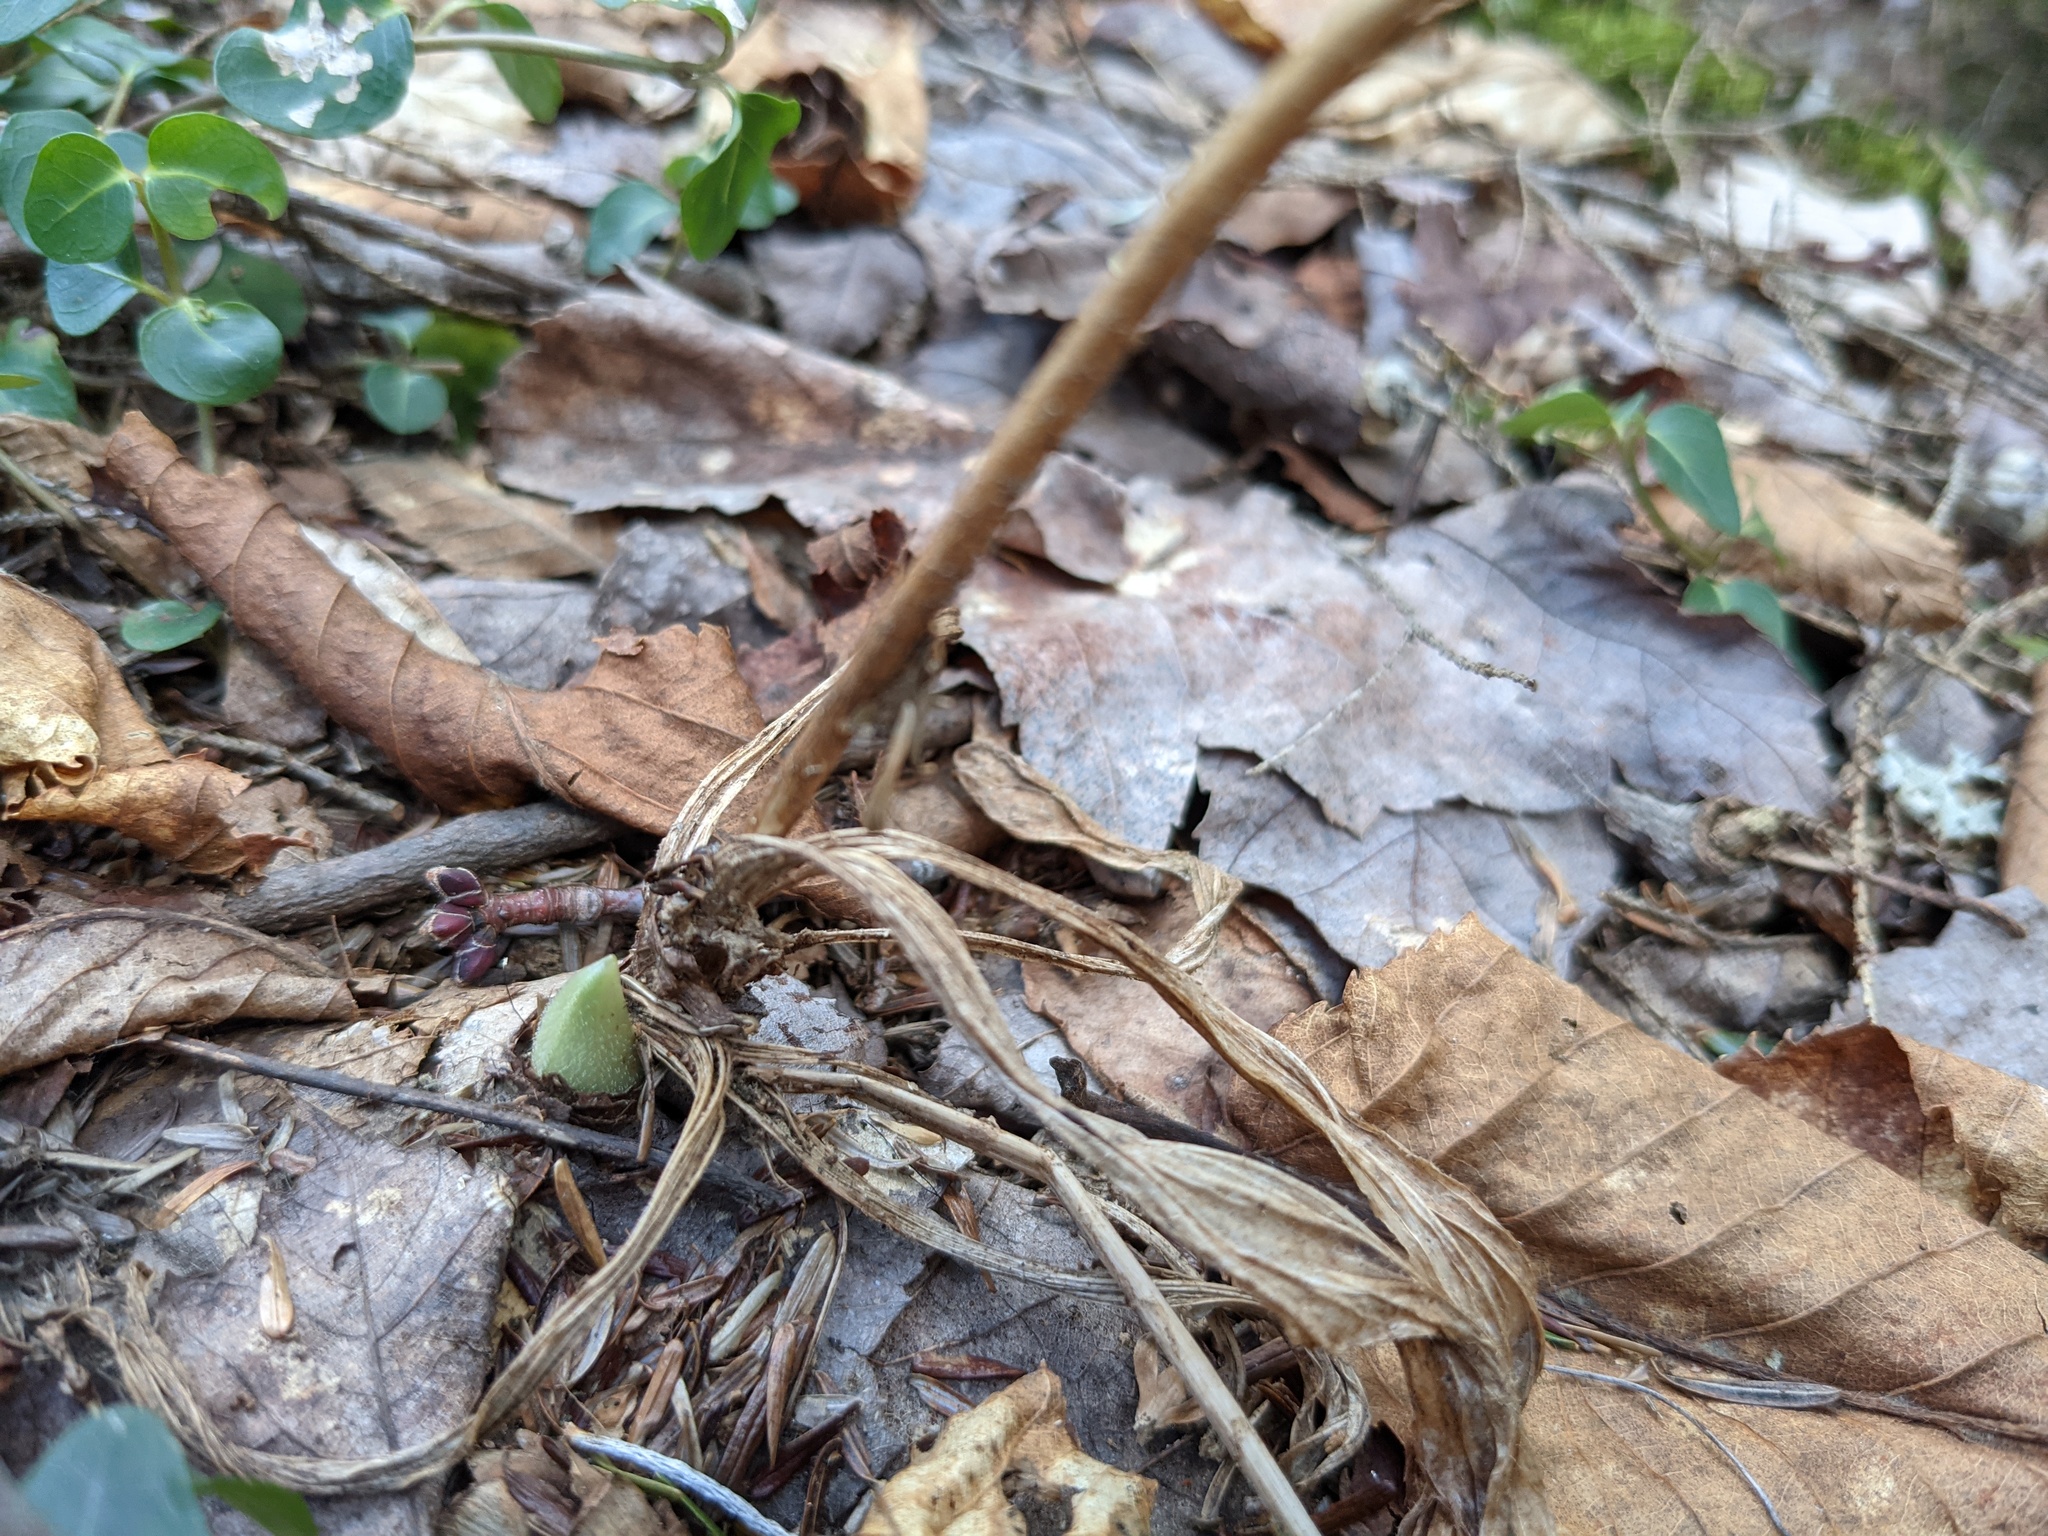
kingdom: Plantae
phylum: Tracheophyta
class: Liliopsida
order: Asparagales
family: Orchidaceae
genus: Cypripedium
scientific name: Cypripedium acaule
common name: Pink lady's-slipper
